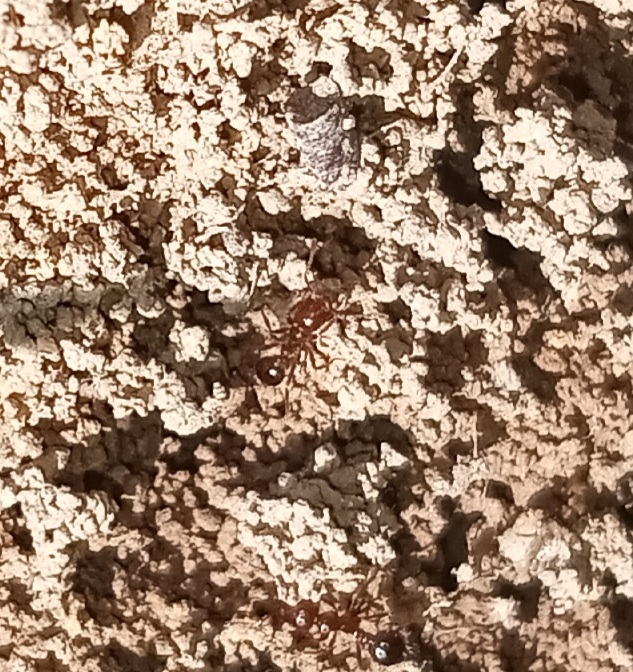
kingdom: Animalia
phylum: Arthropoda
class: Insecta
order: Hymenoptera
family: Formicidae
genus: Solenopsis
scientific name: Solenopsis invicta
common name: Red imported fire ant
